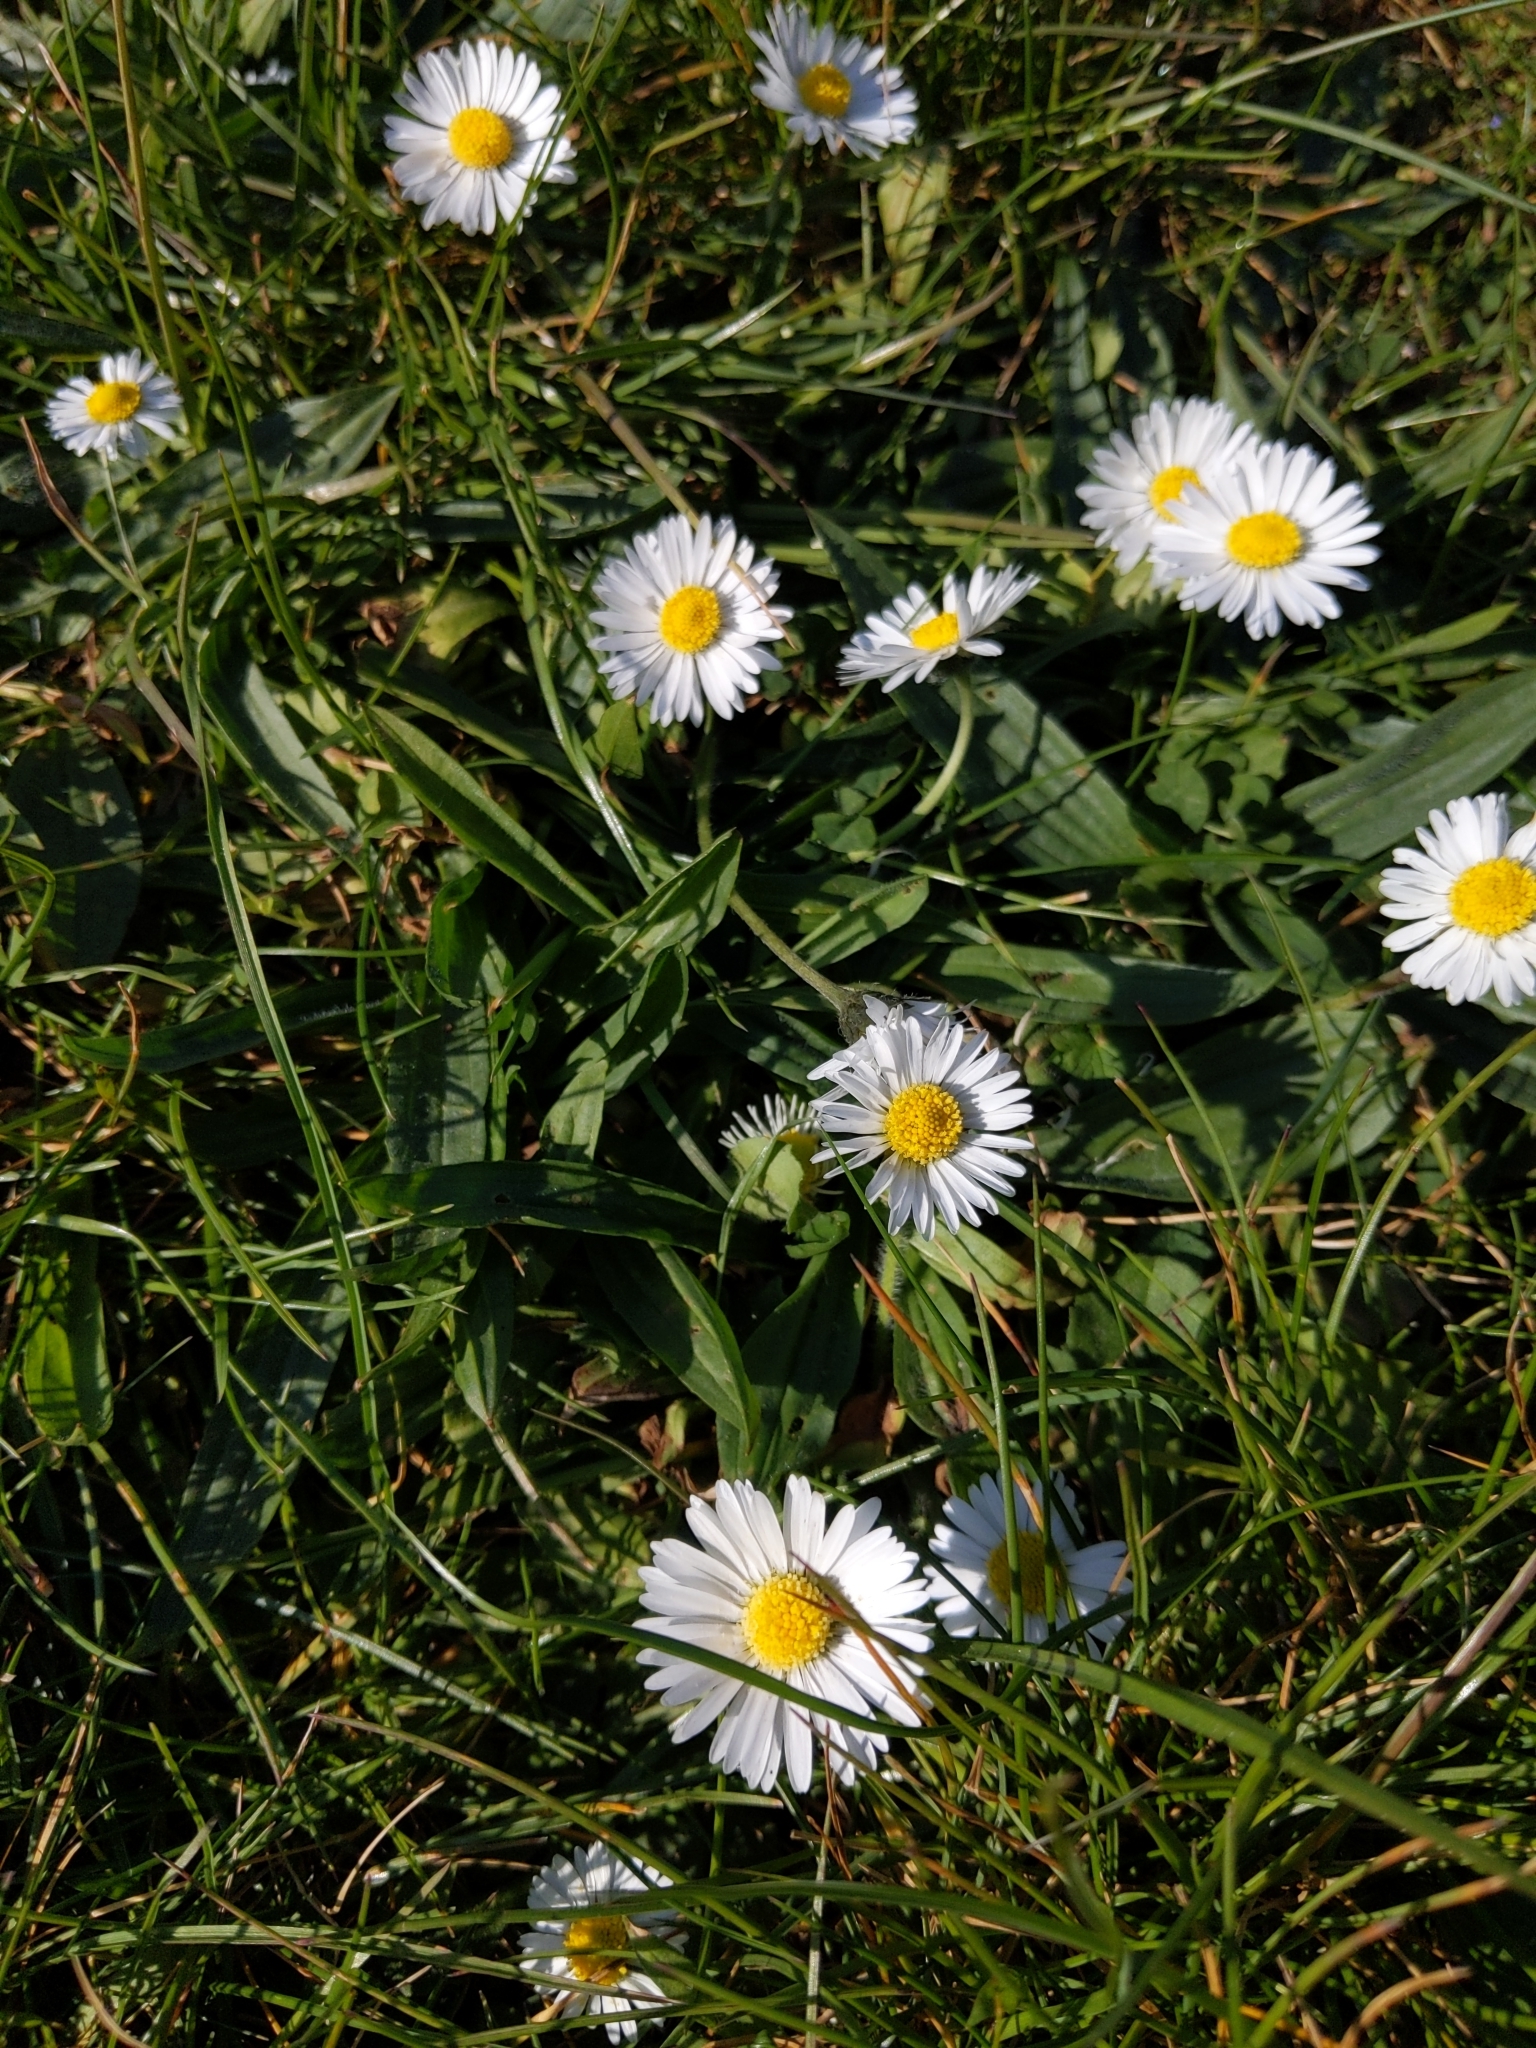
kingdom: Plantae
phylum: Tracheophyta
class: Magnoliopsida
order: Asterales
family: Asteraceae
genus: Bellis
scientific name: Bellis perennis
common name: Lawndaisy
